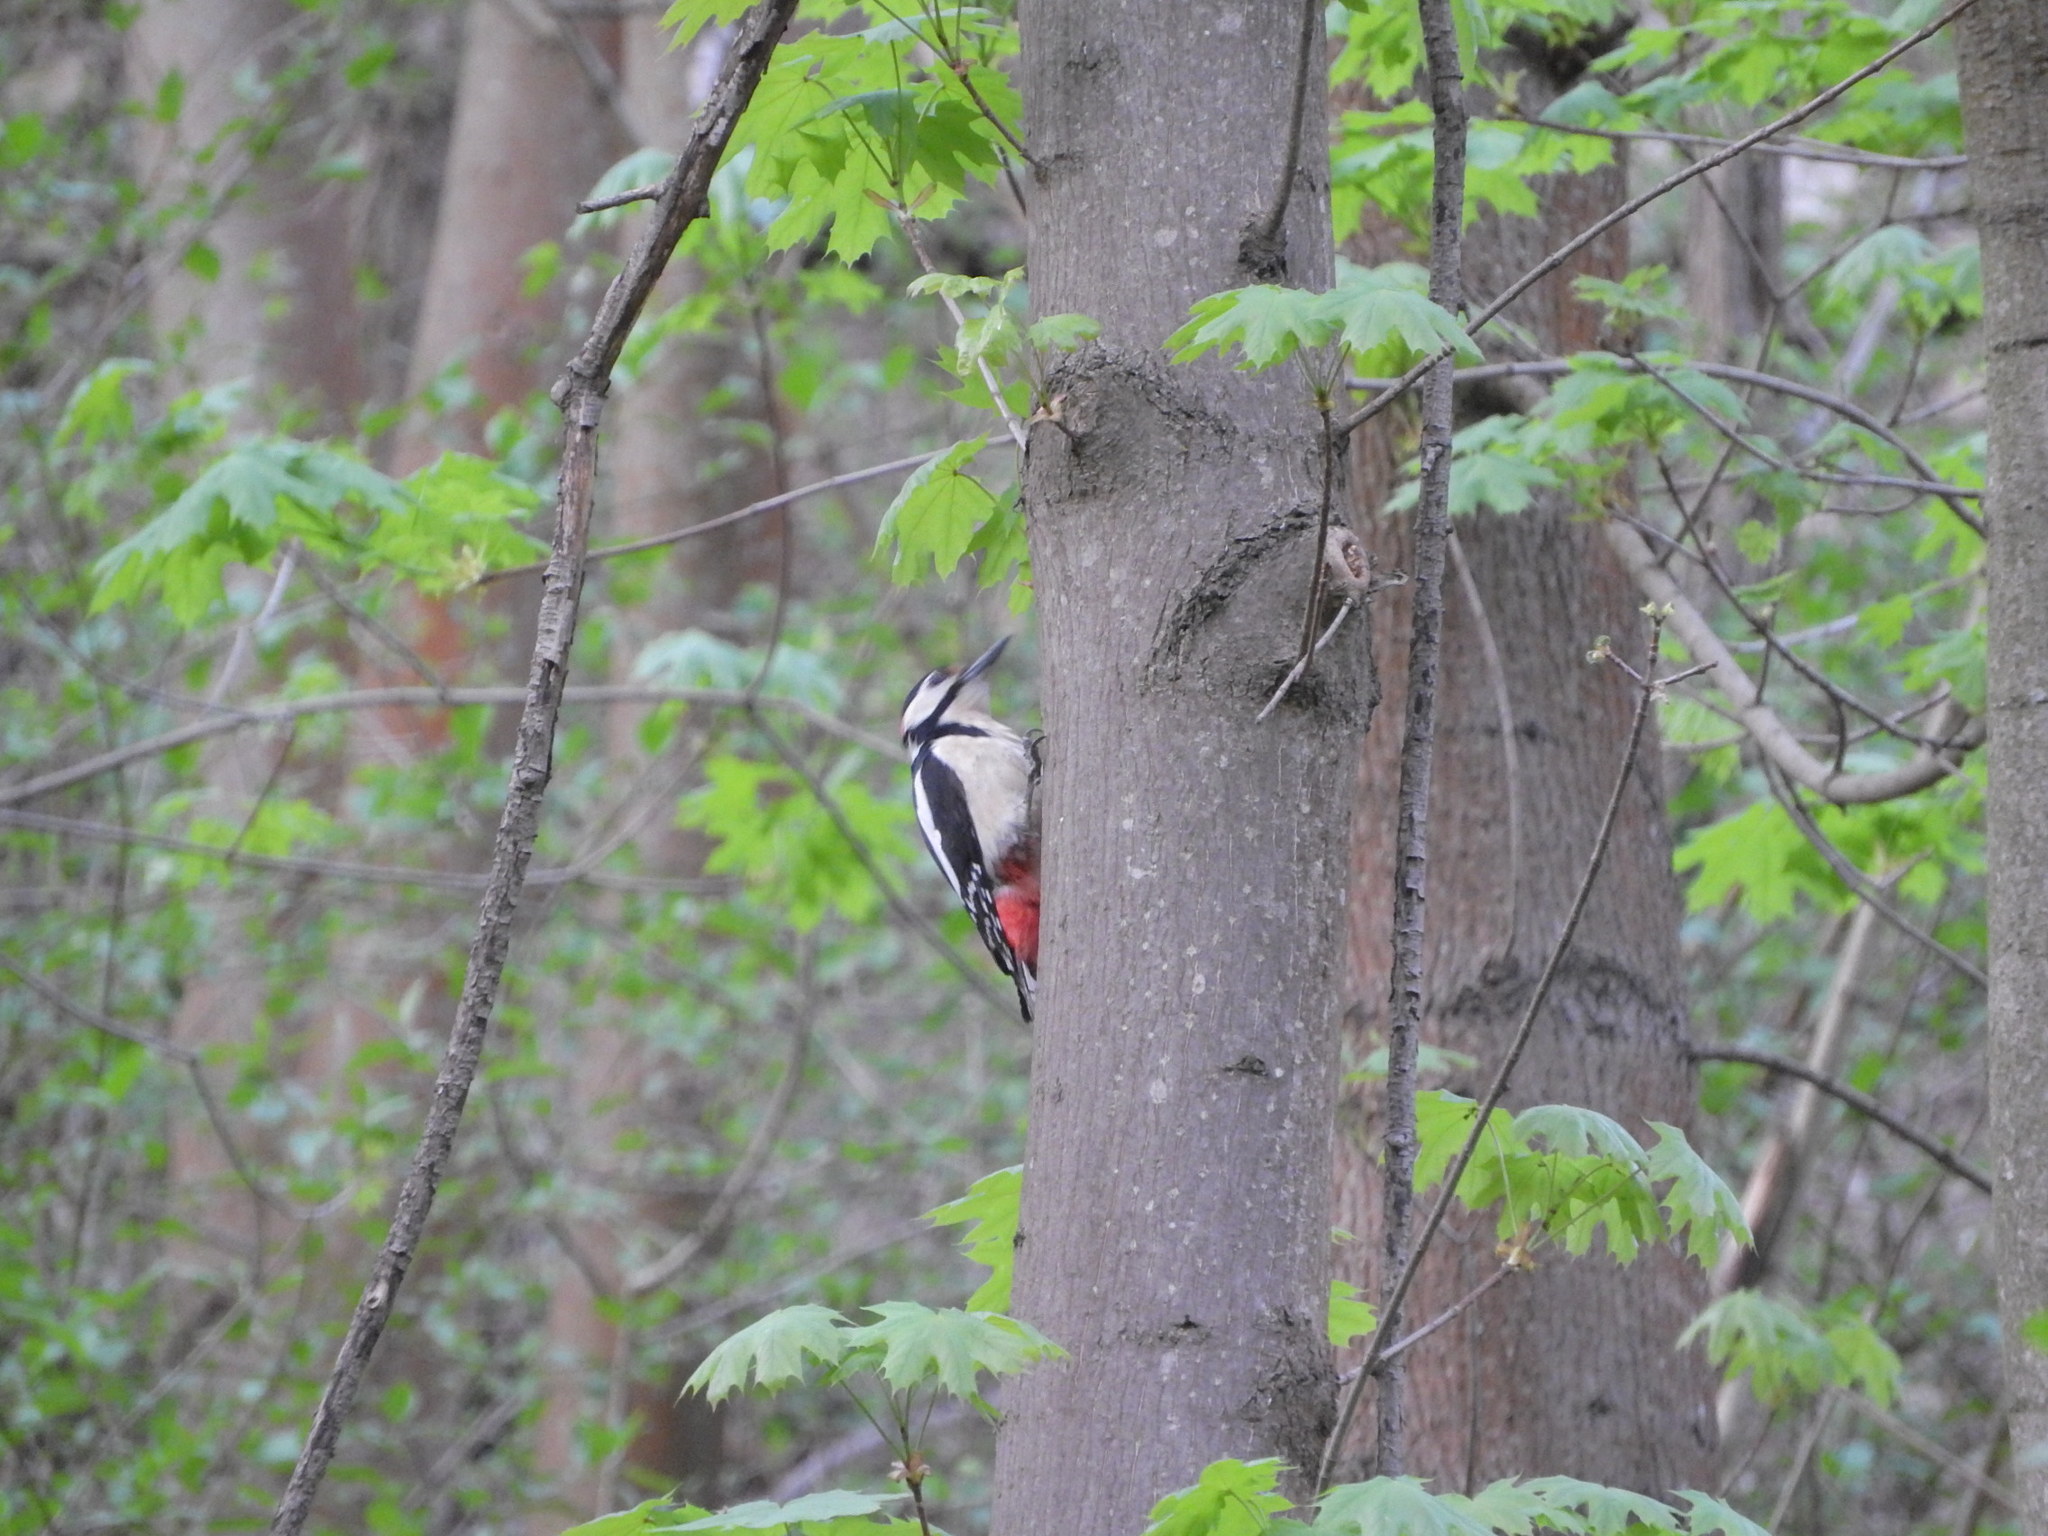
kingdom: Animalia
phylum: Chordata
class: Aves
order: Piciformes
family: Picidae
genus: Dendrocopos
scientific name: Dendrocopos major
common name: Great spotted woodpecker
